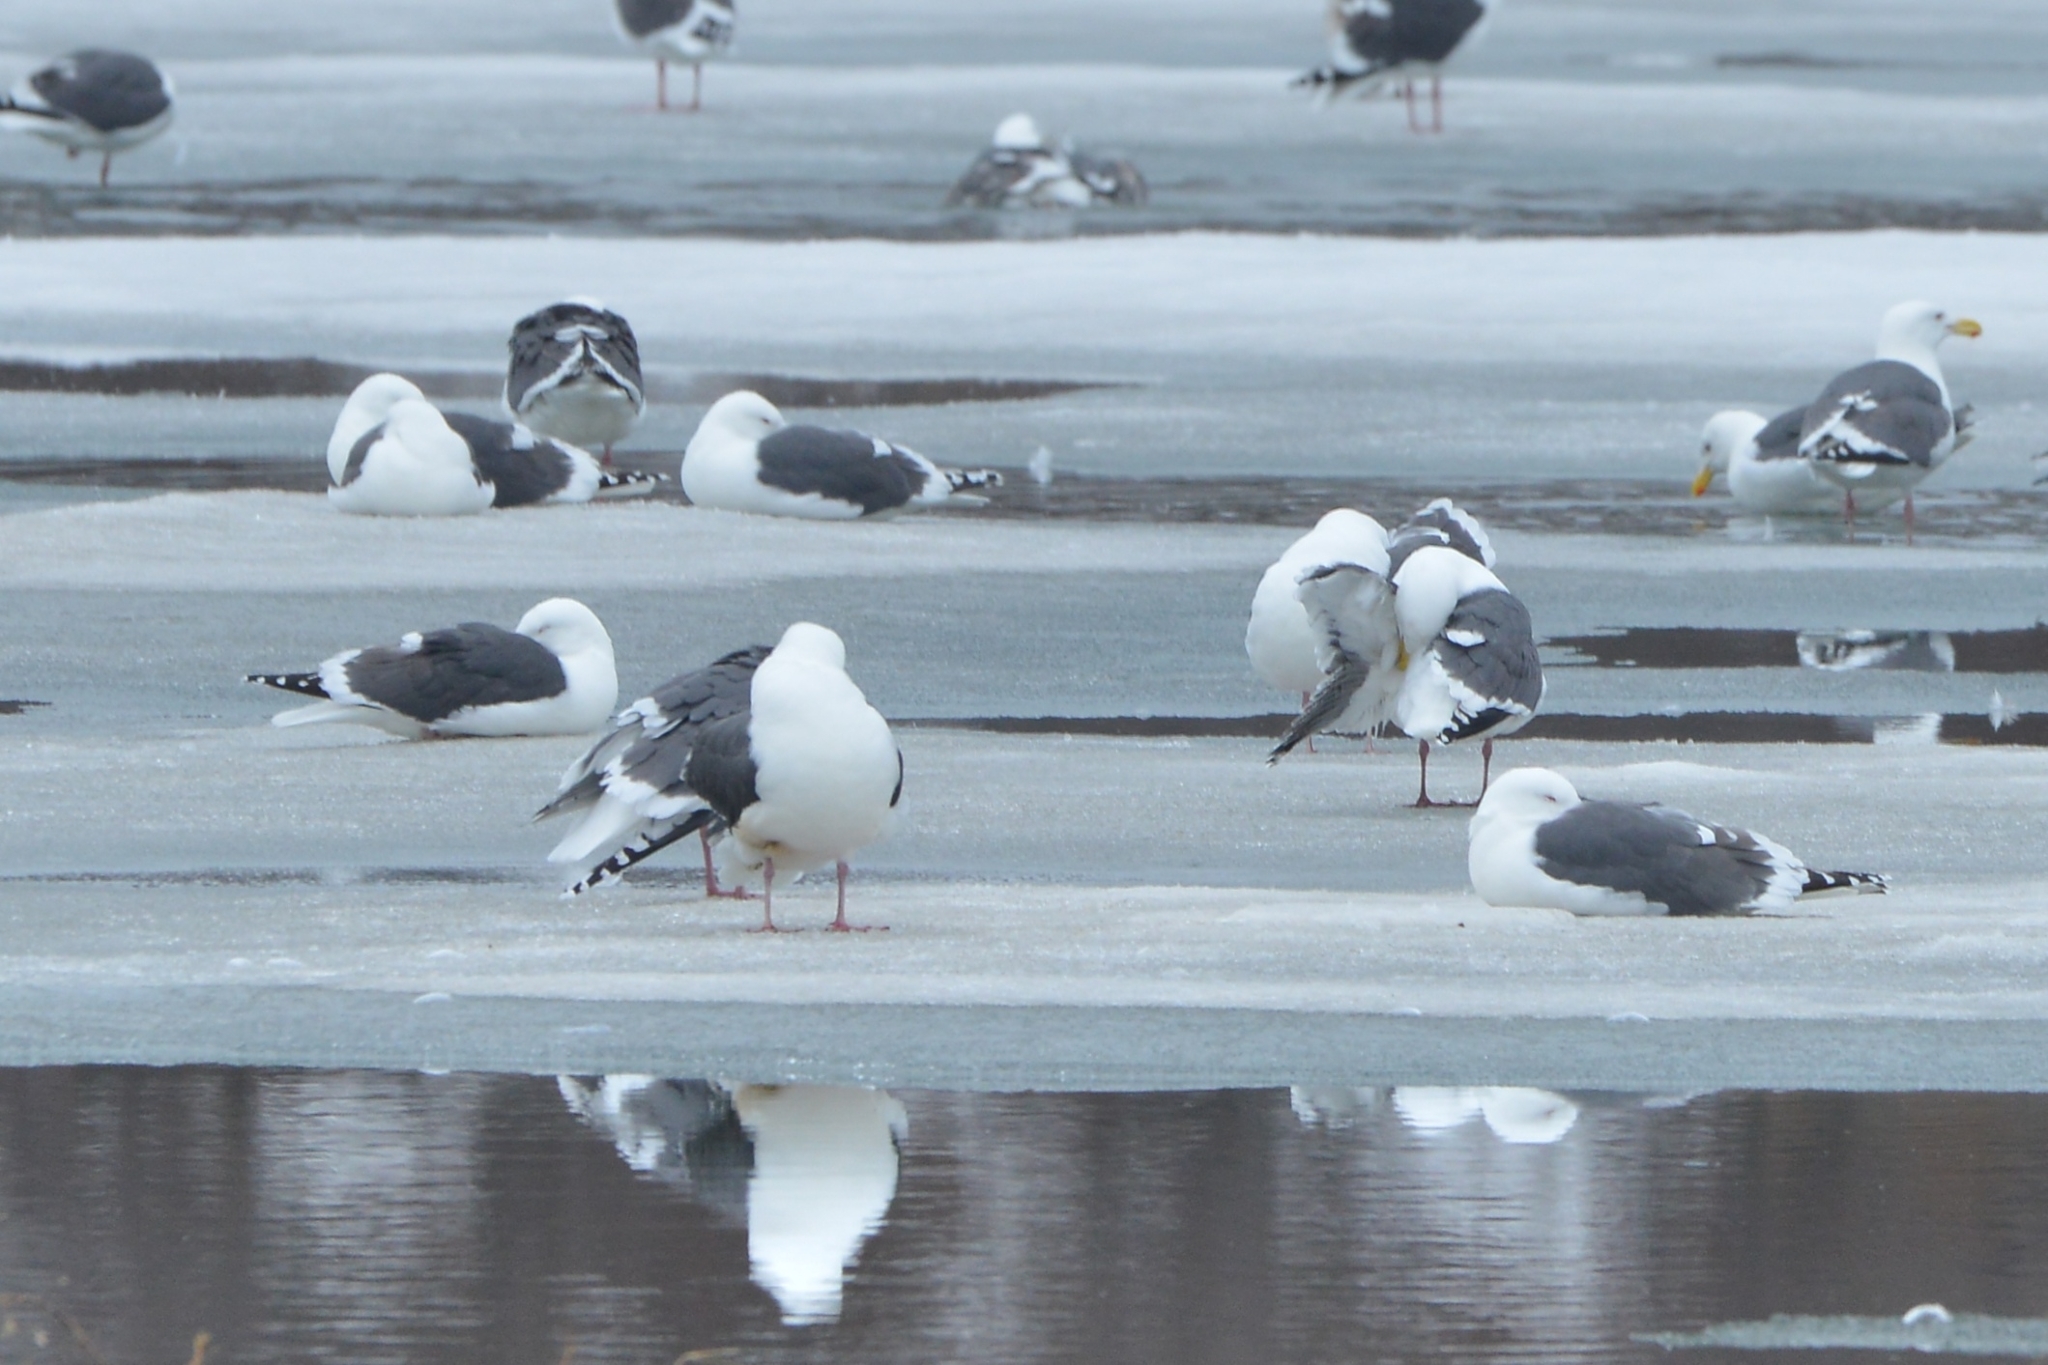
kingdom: Animalia
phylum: Chordata
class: Aves
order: Charadriiformes
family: Laridae
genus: Larus
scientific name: Larus schistisagus
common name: Slaty-backed gull
